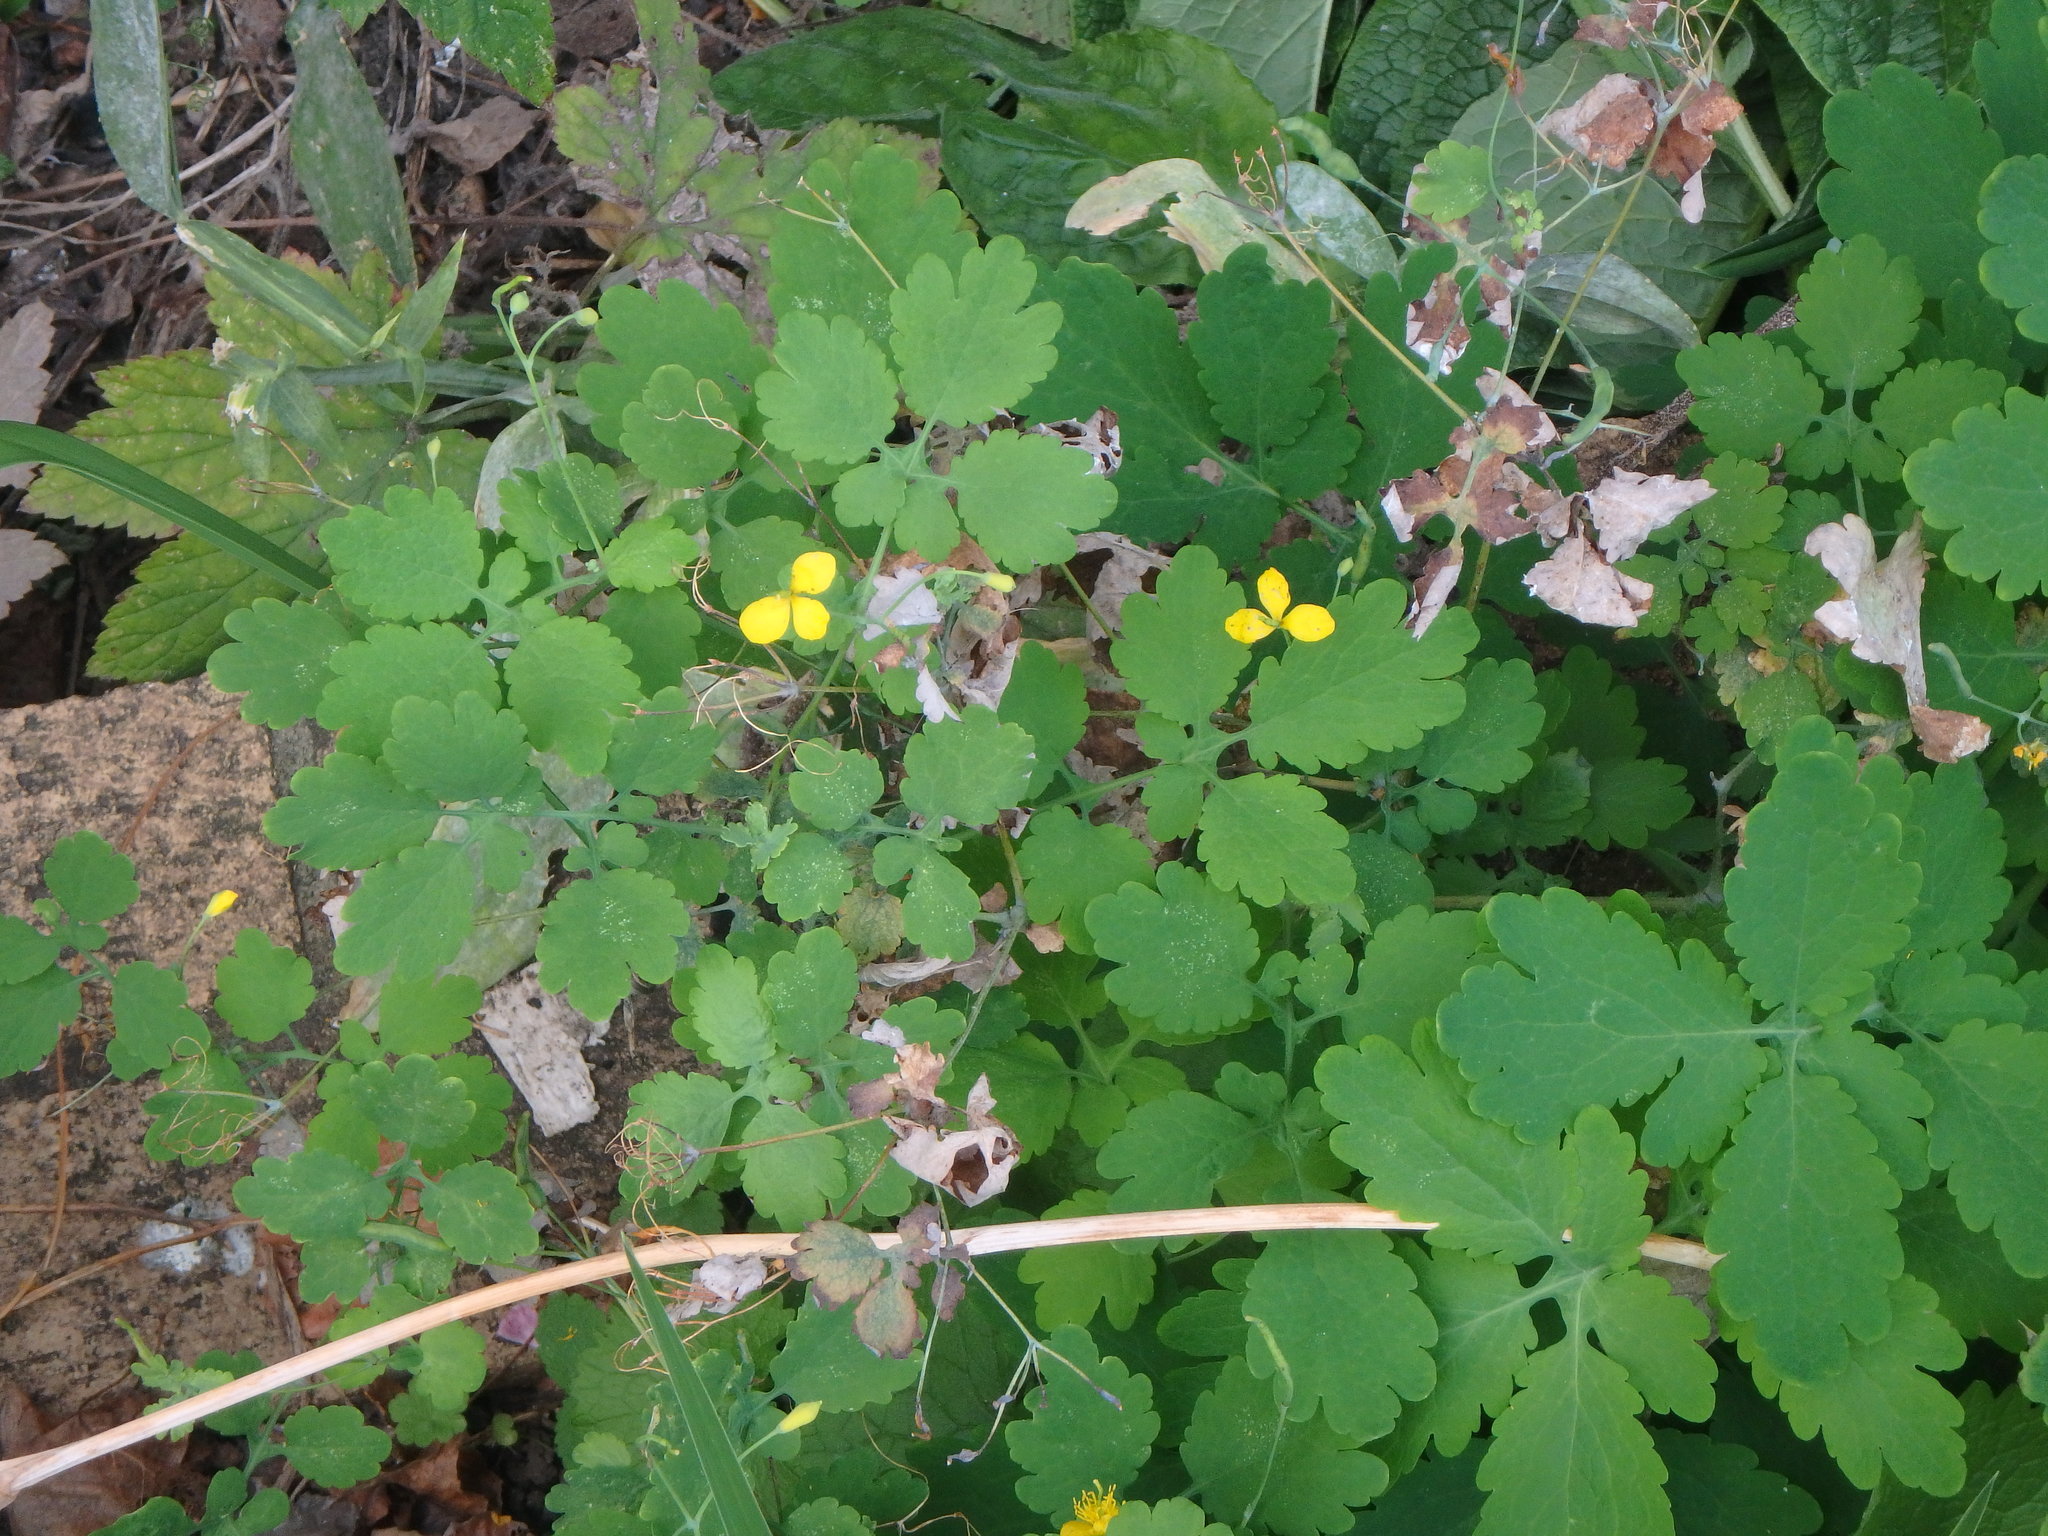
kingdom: Plantae
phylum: Tracheophyta
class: Magnoliopsida
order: Ranunculales
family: Papaveraceae
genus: Chelidonium
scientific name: Chelidonium majus
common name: Greater celandine
